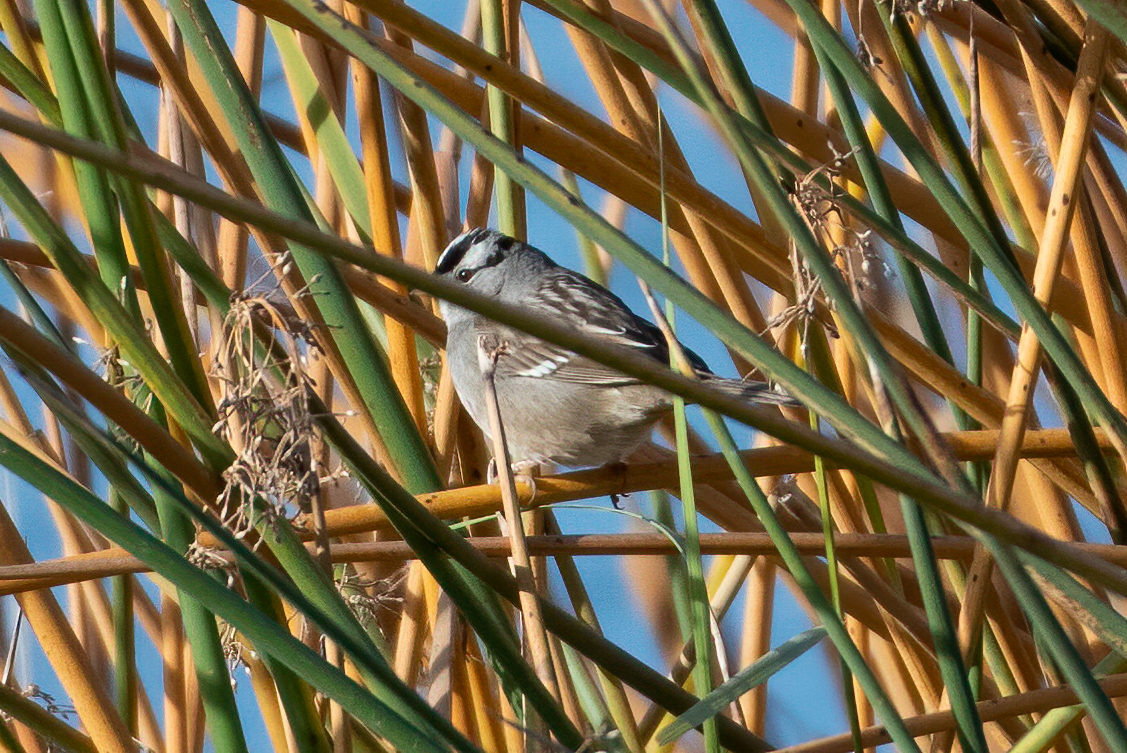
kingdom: Animalia
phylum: Chordata
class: Aves
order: Passeriformes
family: Passerellidae
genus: Zonotrichia
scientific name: Zonotrichia leucophrys
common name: White-crowned sparrow
